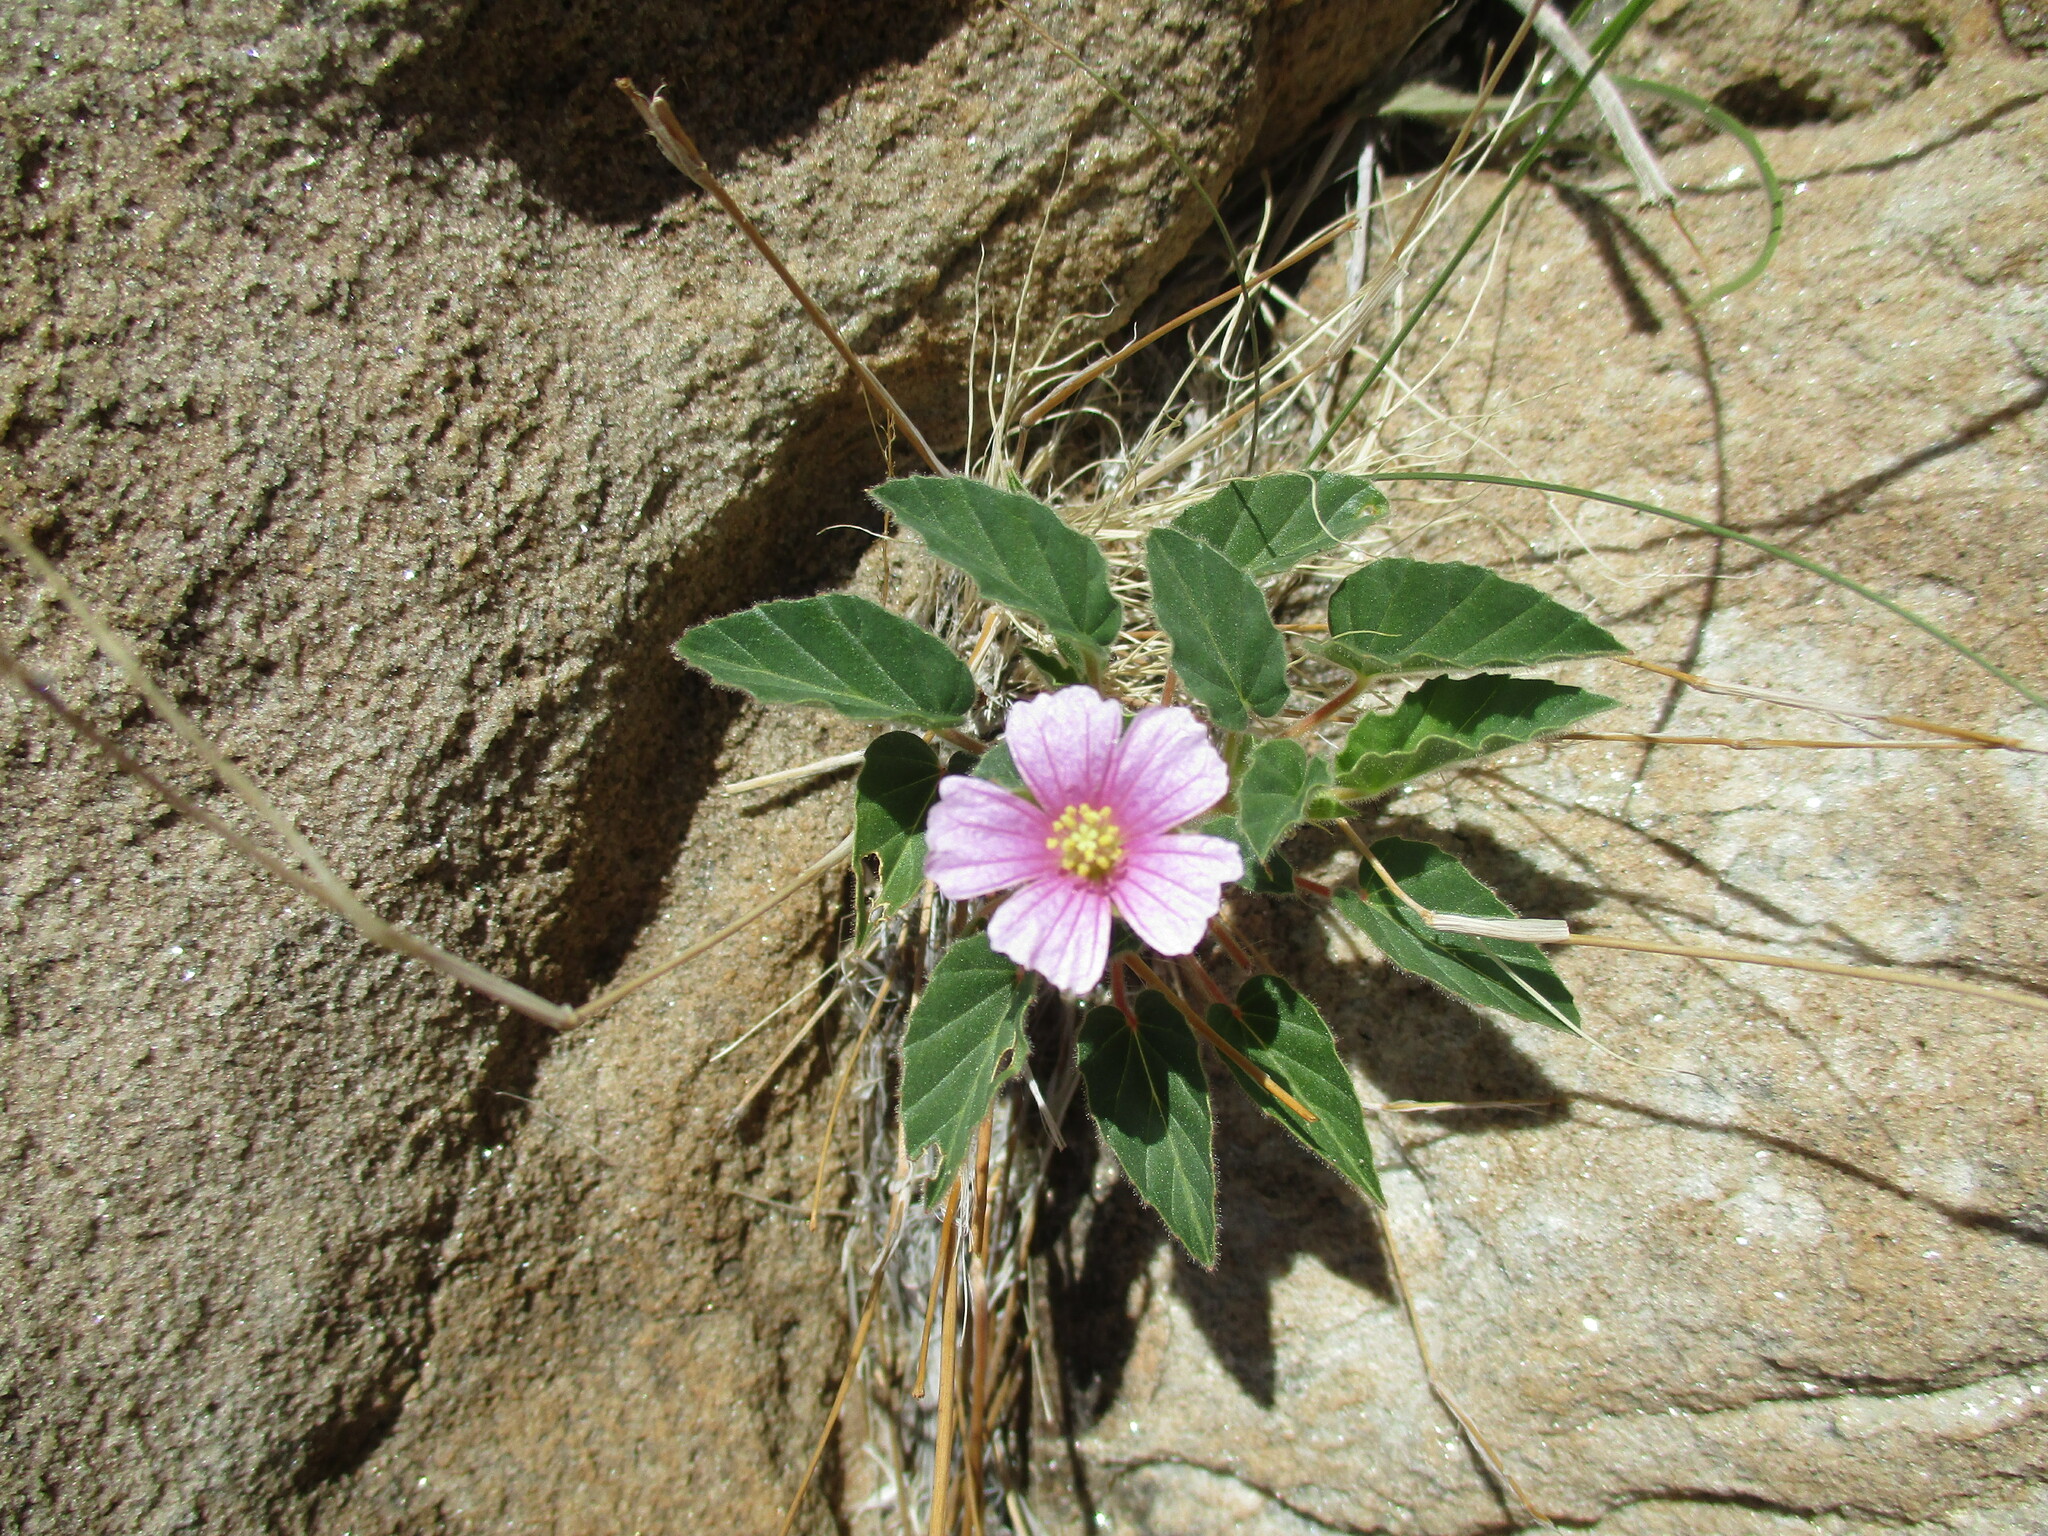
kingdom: Plantae
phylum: Tracheophyta
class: Magnoliopsida
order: Geraniales
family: Geraniaceae
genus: Monsonia
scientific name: Monsonia senegalensis
